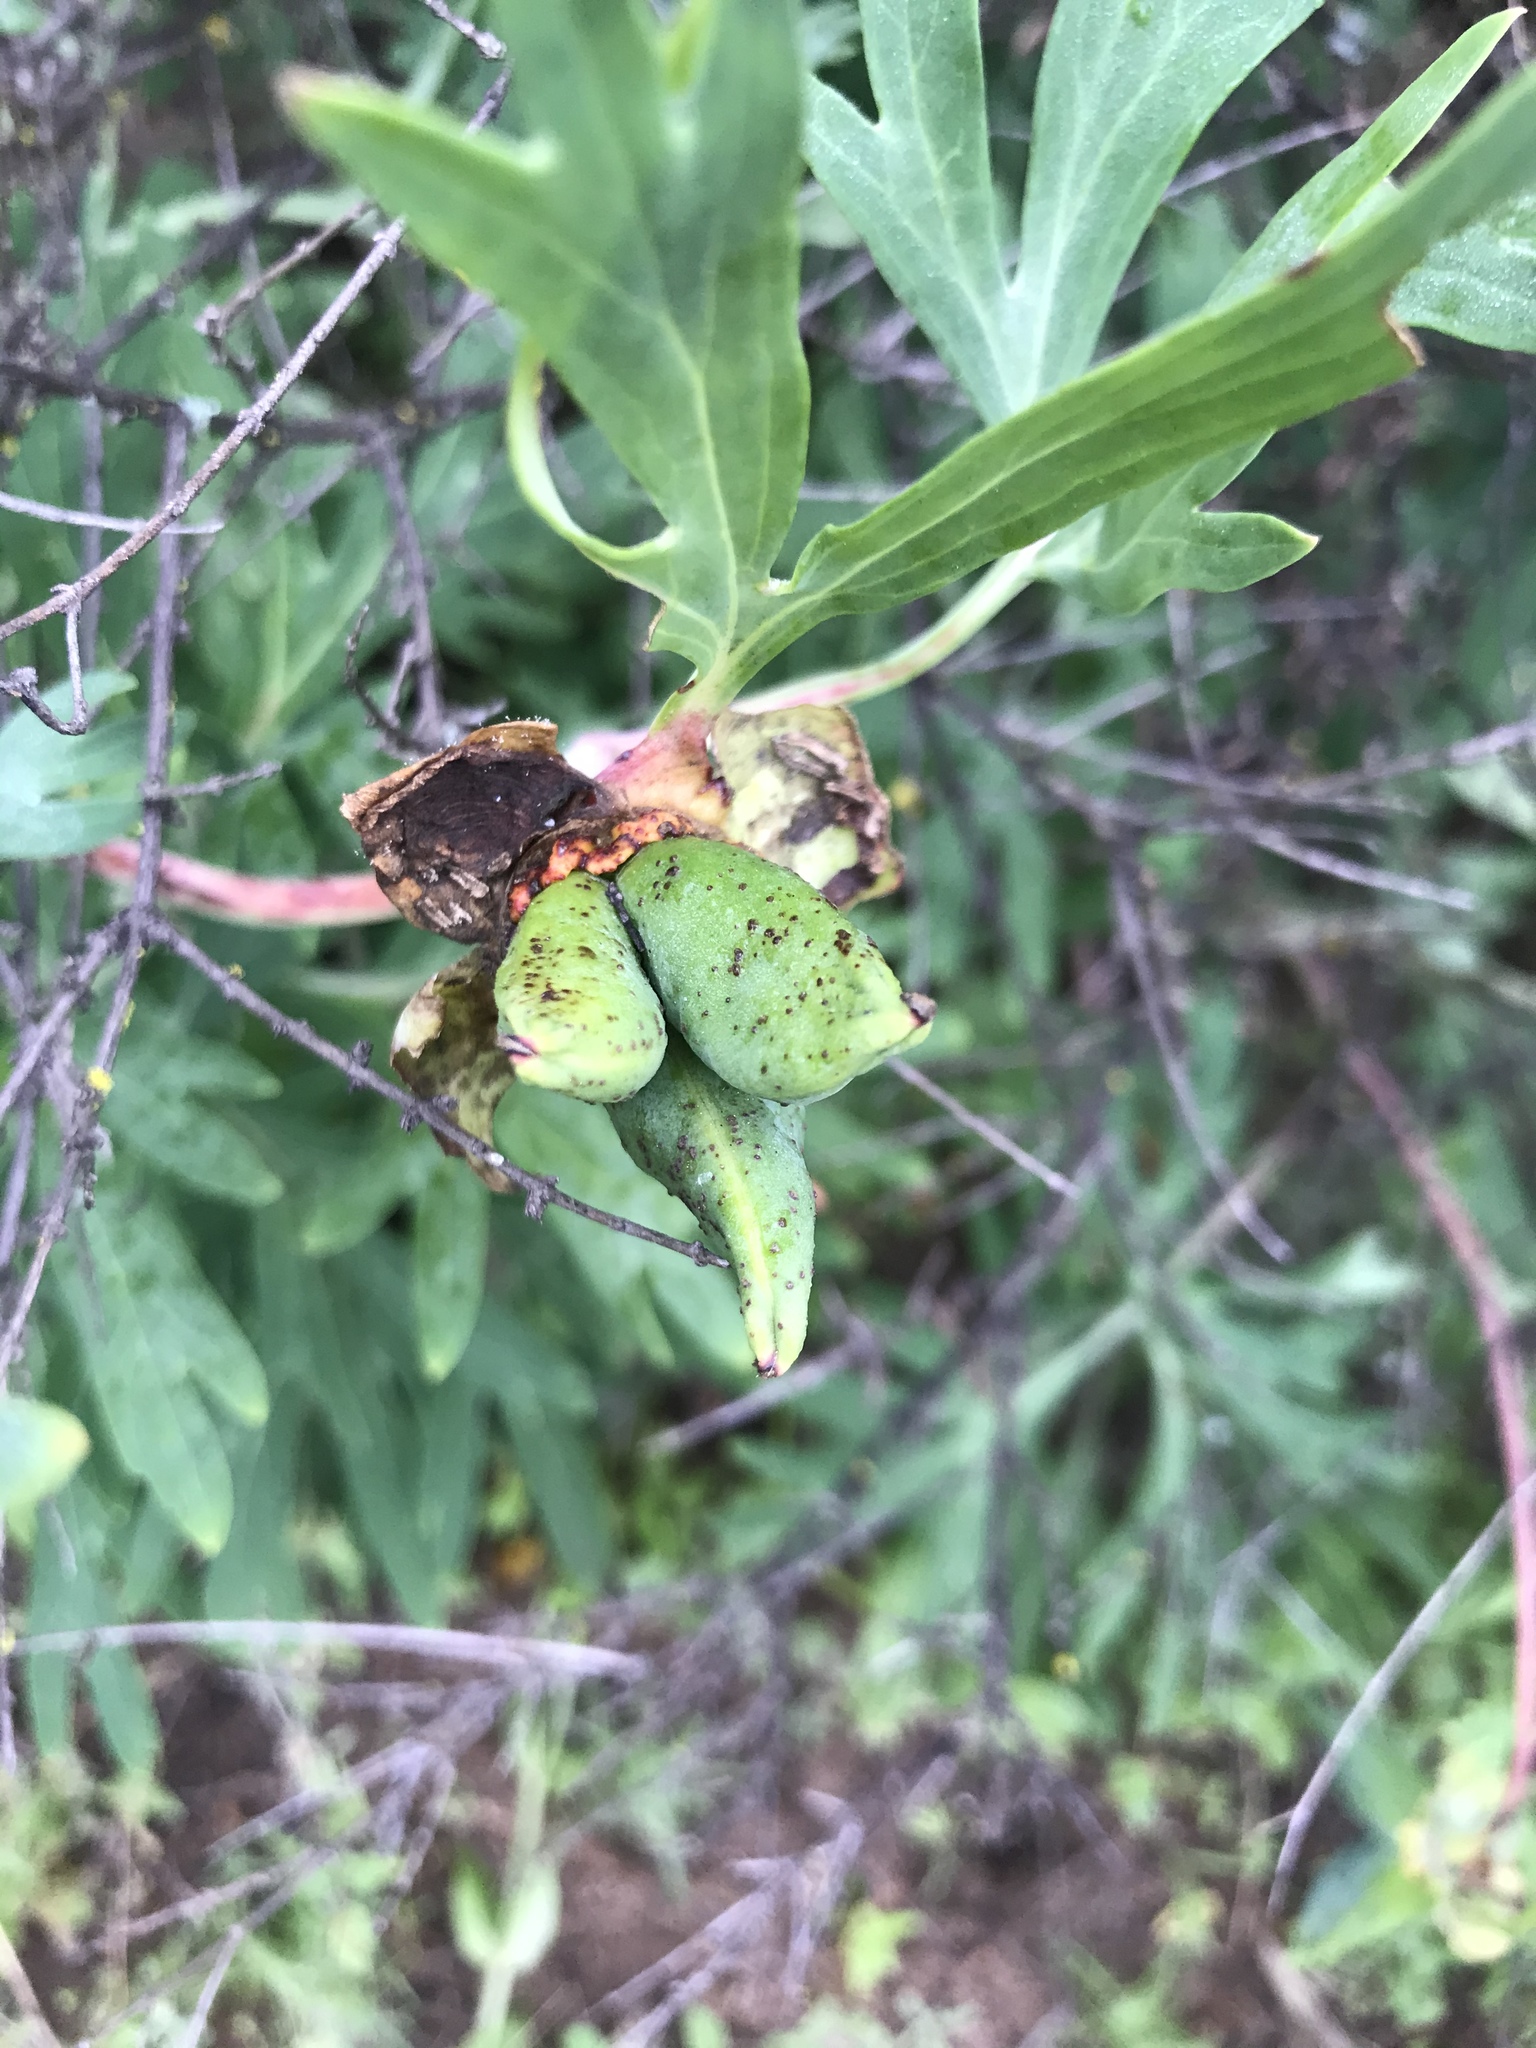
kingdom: Plantae
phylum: Tracheophyta
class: Magnoliopsida
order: Saxifragales
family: Paeoniaceae
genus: Paeonia
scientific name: Paeonia californica
